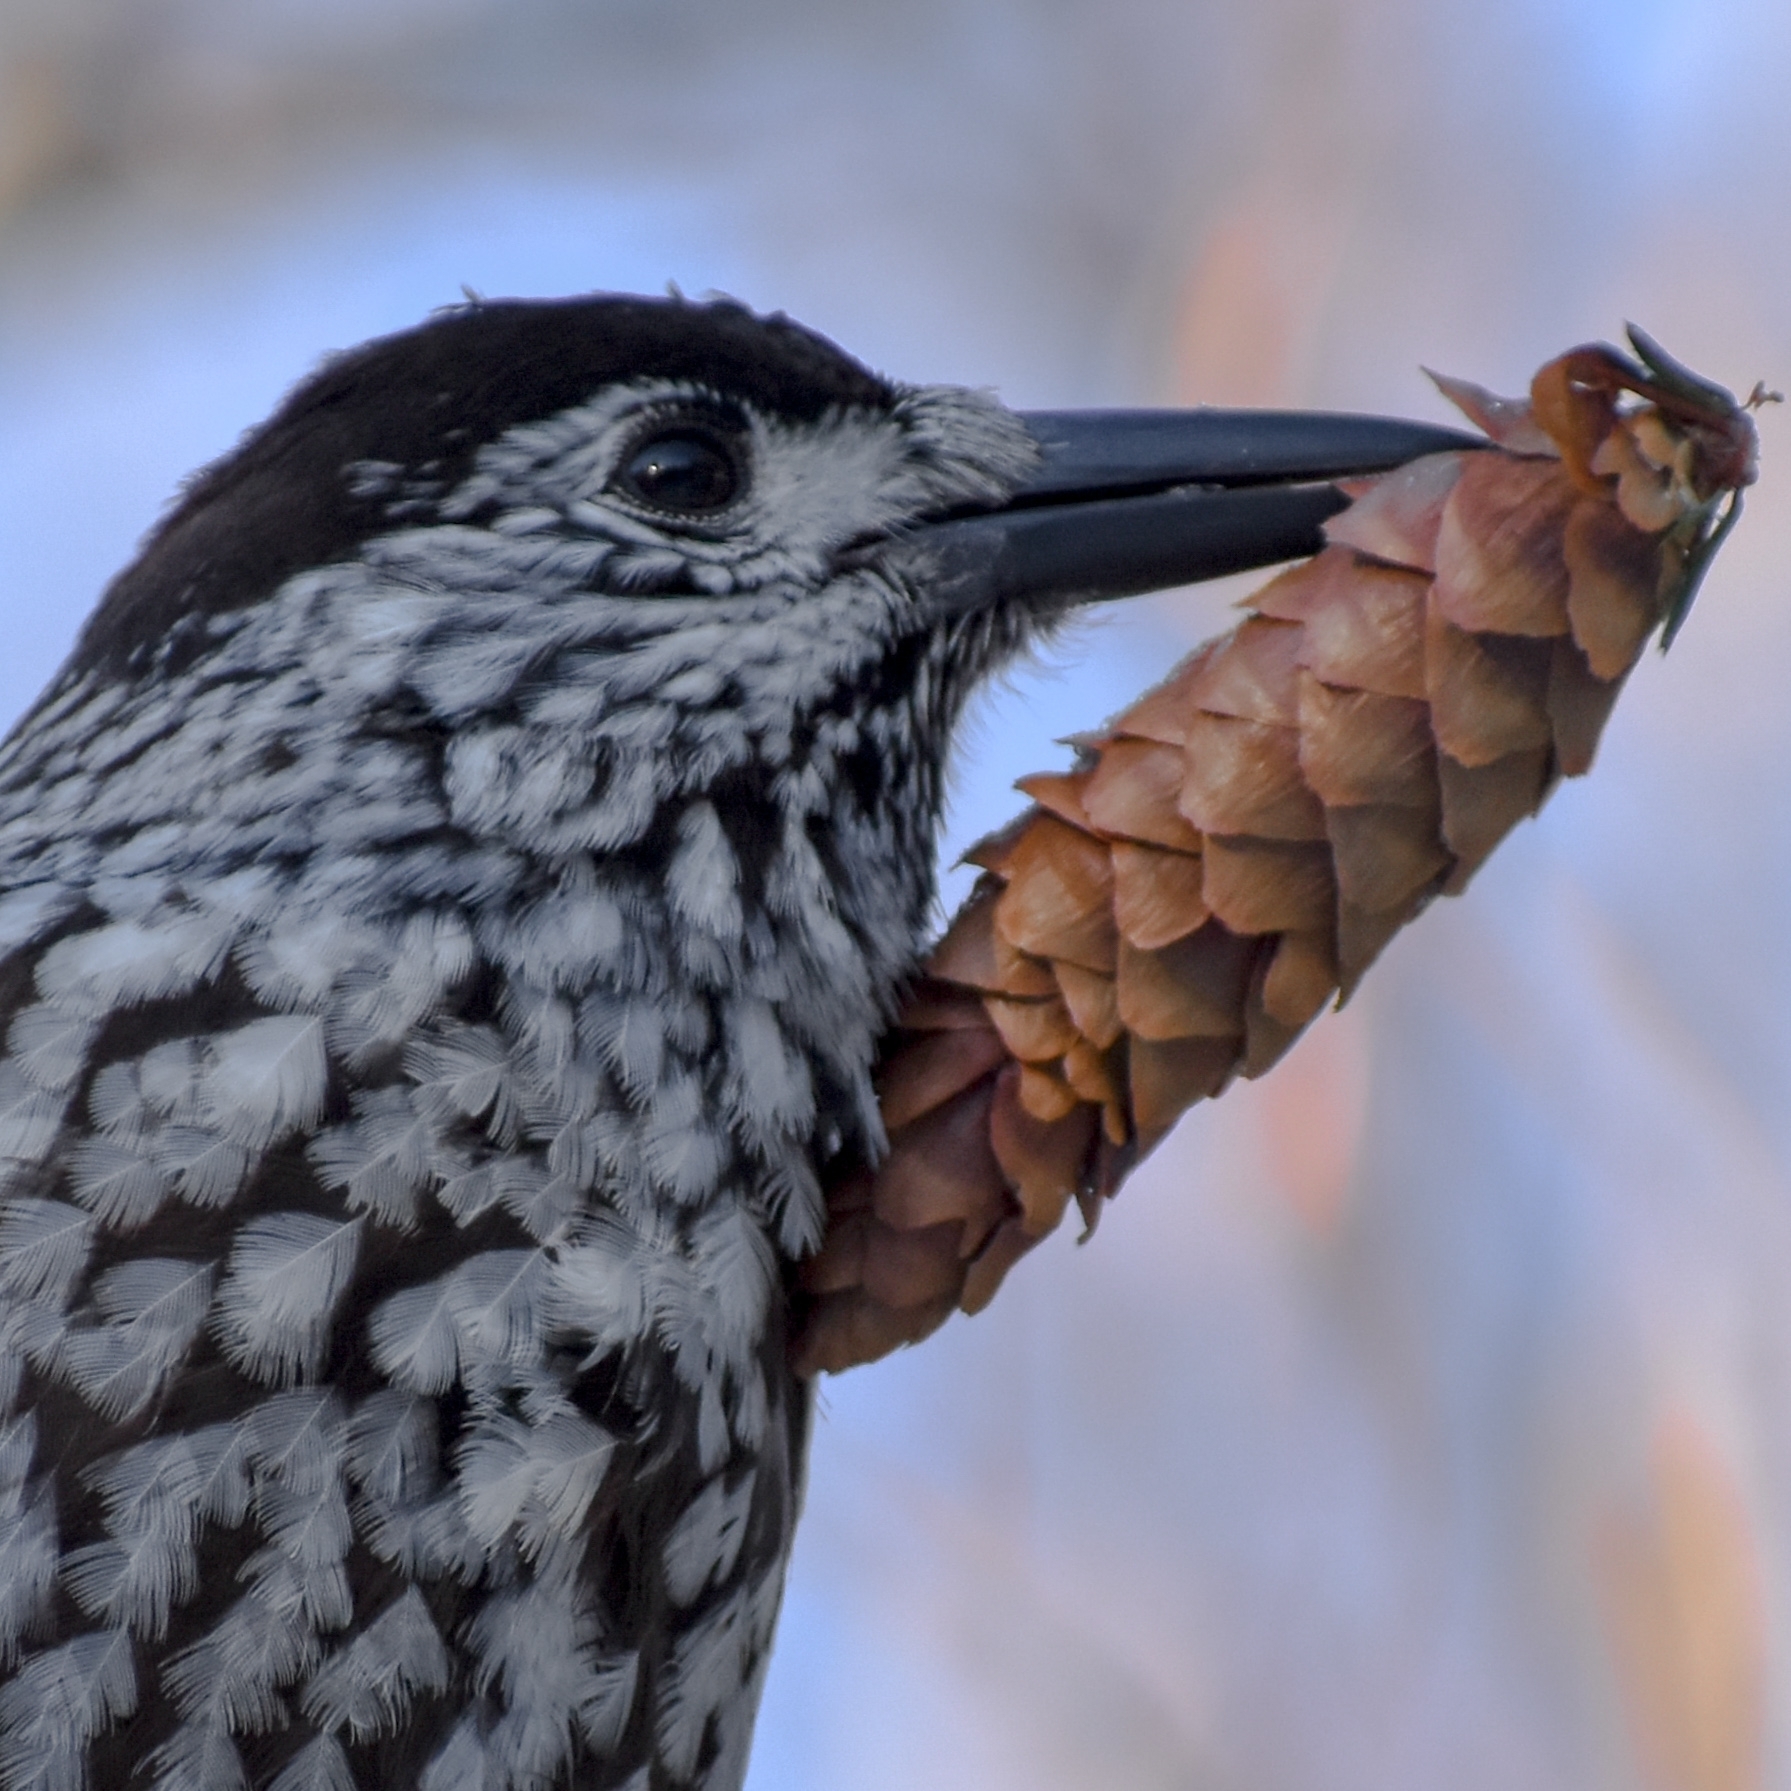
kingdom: Animalia
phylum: Chordata
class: Aves
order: Passeriformes
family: Corvidae
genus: Nucifraga
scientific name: Nucifraga caryocatactes
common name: Spotted nutcracker
